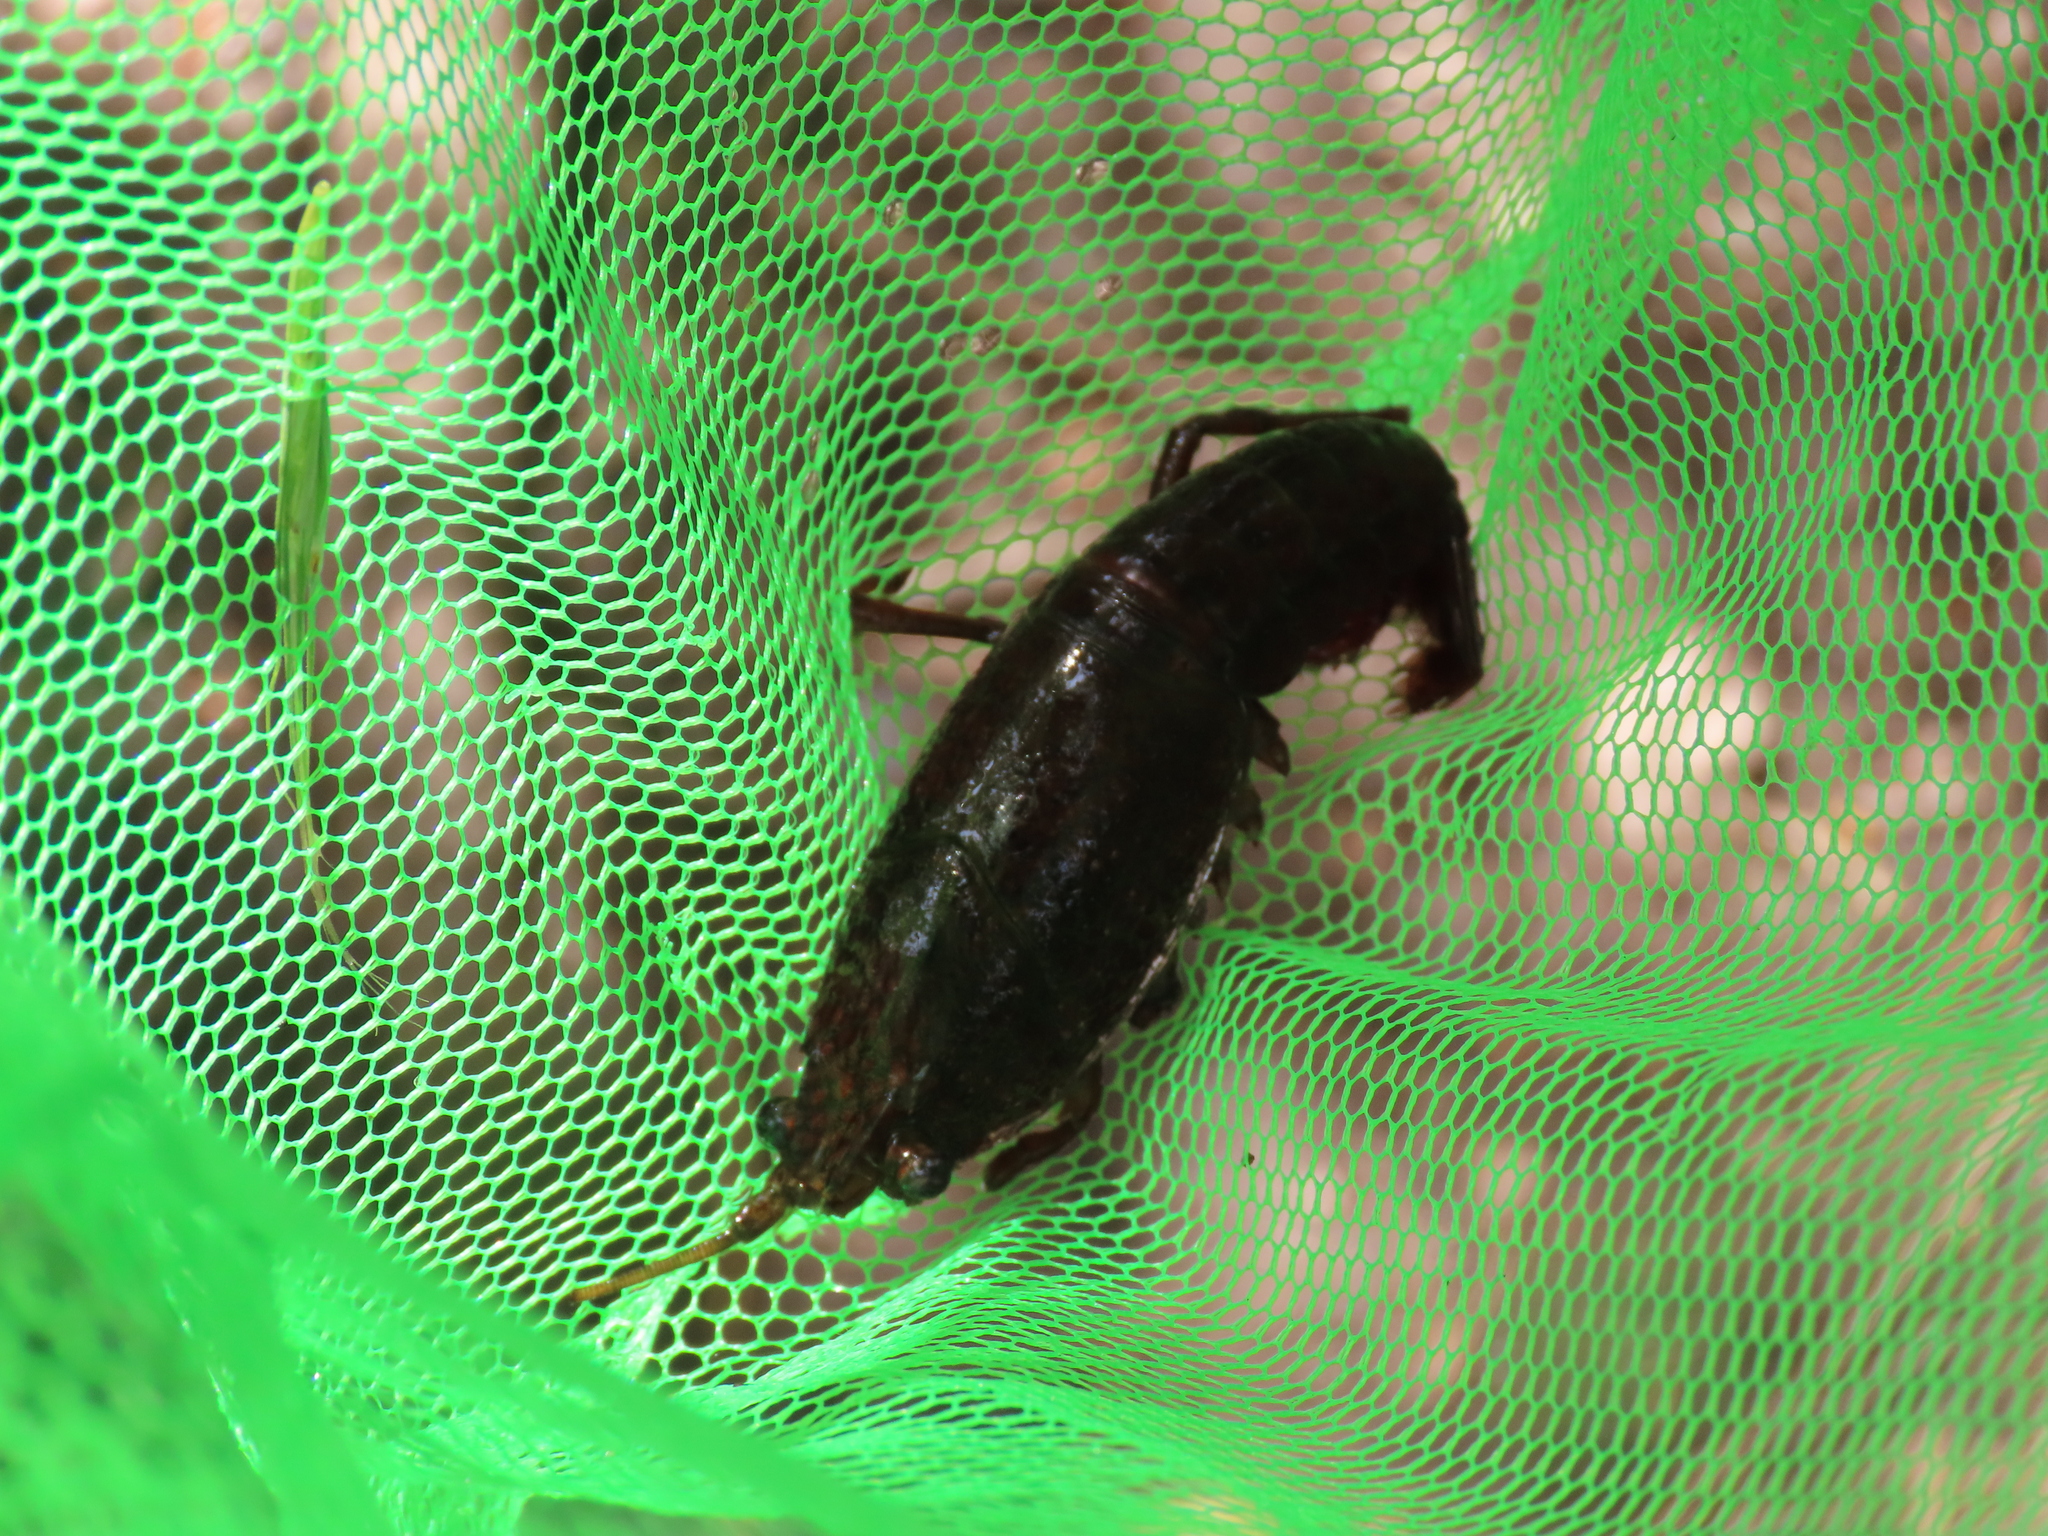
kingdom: Animalia
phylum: Arthropoda
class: Malacostraca
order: Decapoda
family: Cambaridae
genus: Procambarus
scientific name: Procambarus clarkii
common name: Red swamp crayfish
